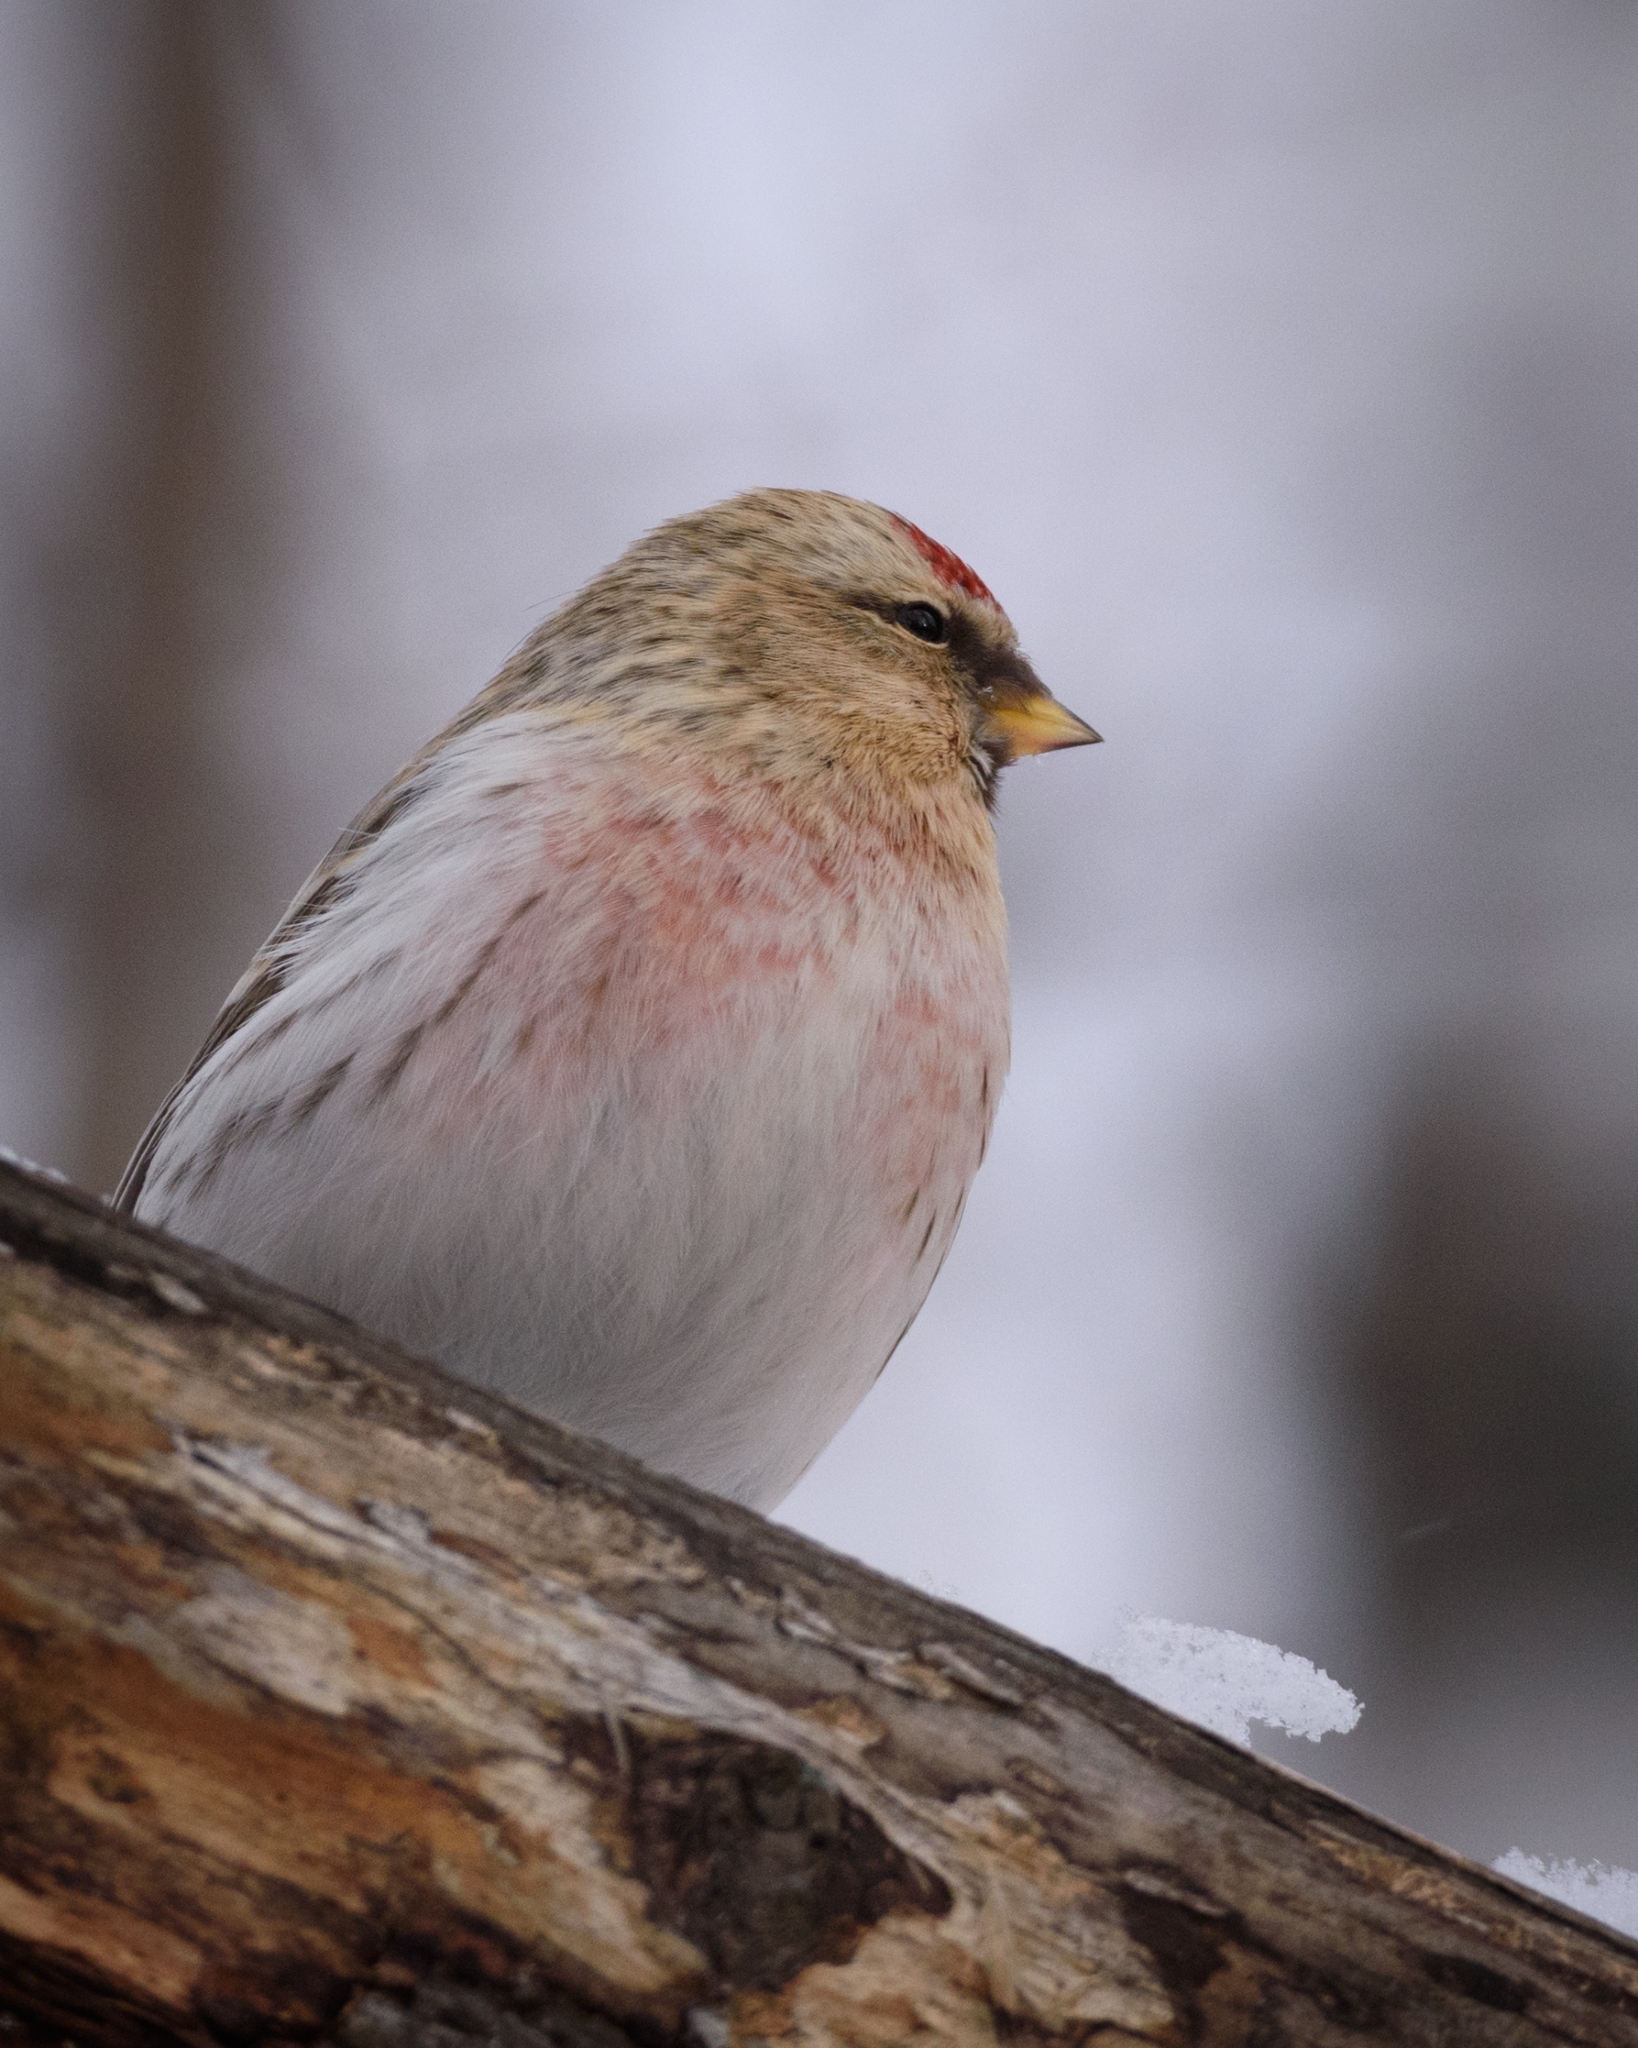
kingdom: Animalia
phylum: Chordata
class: Aves
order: Passeriformes
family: Fringillidae
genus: Acanthis
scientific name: Acanthis hornemanni
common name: Arctic redpoll
